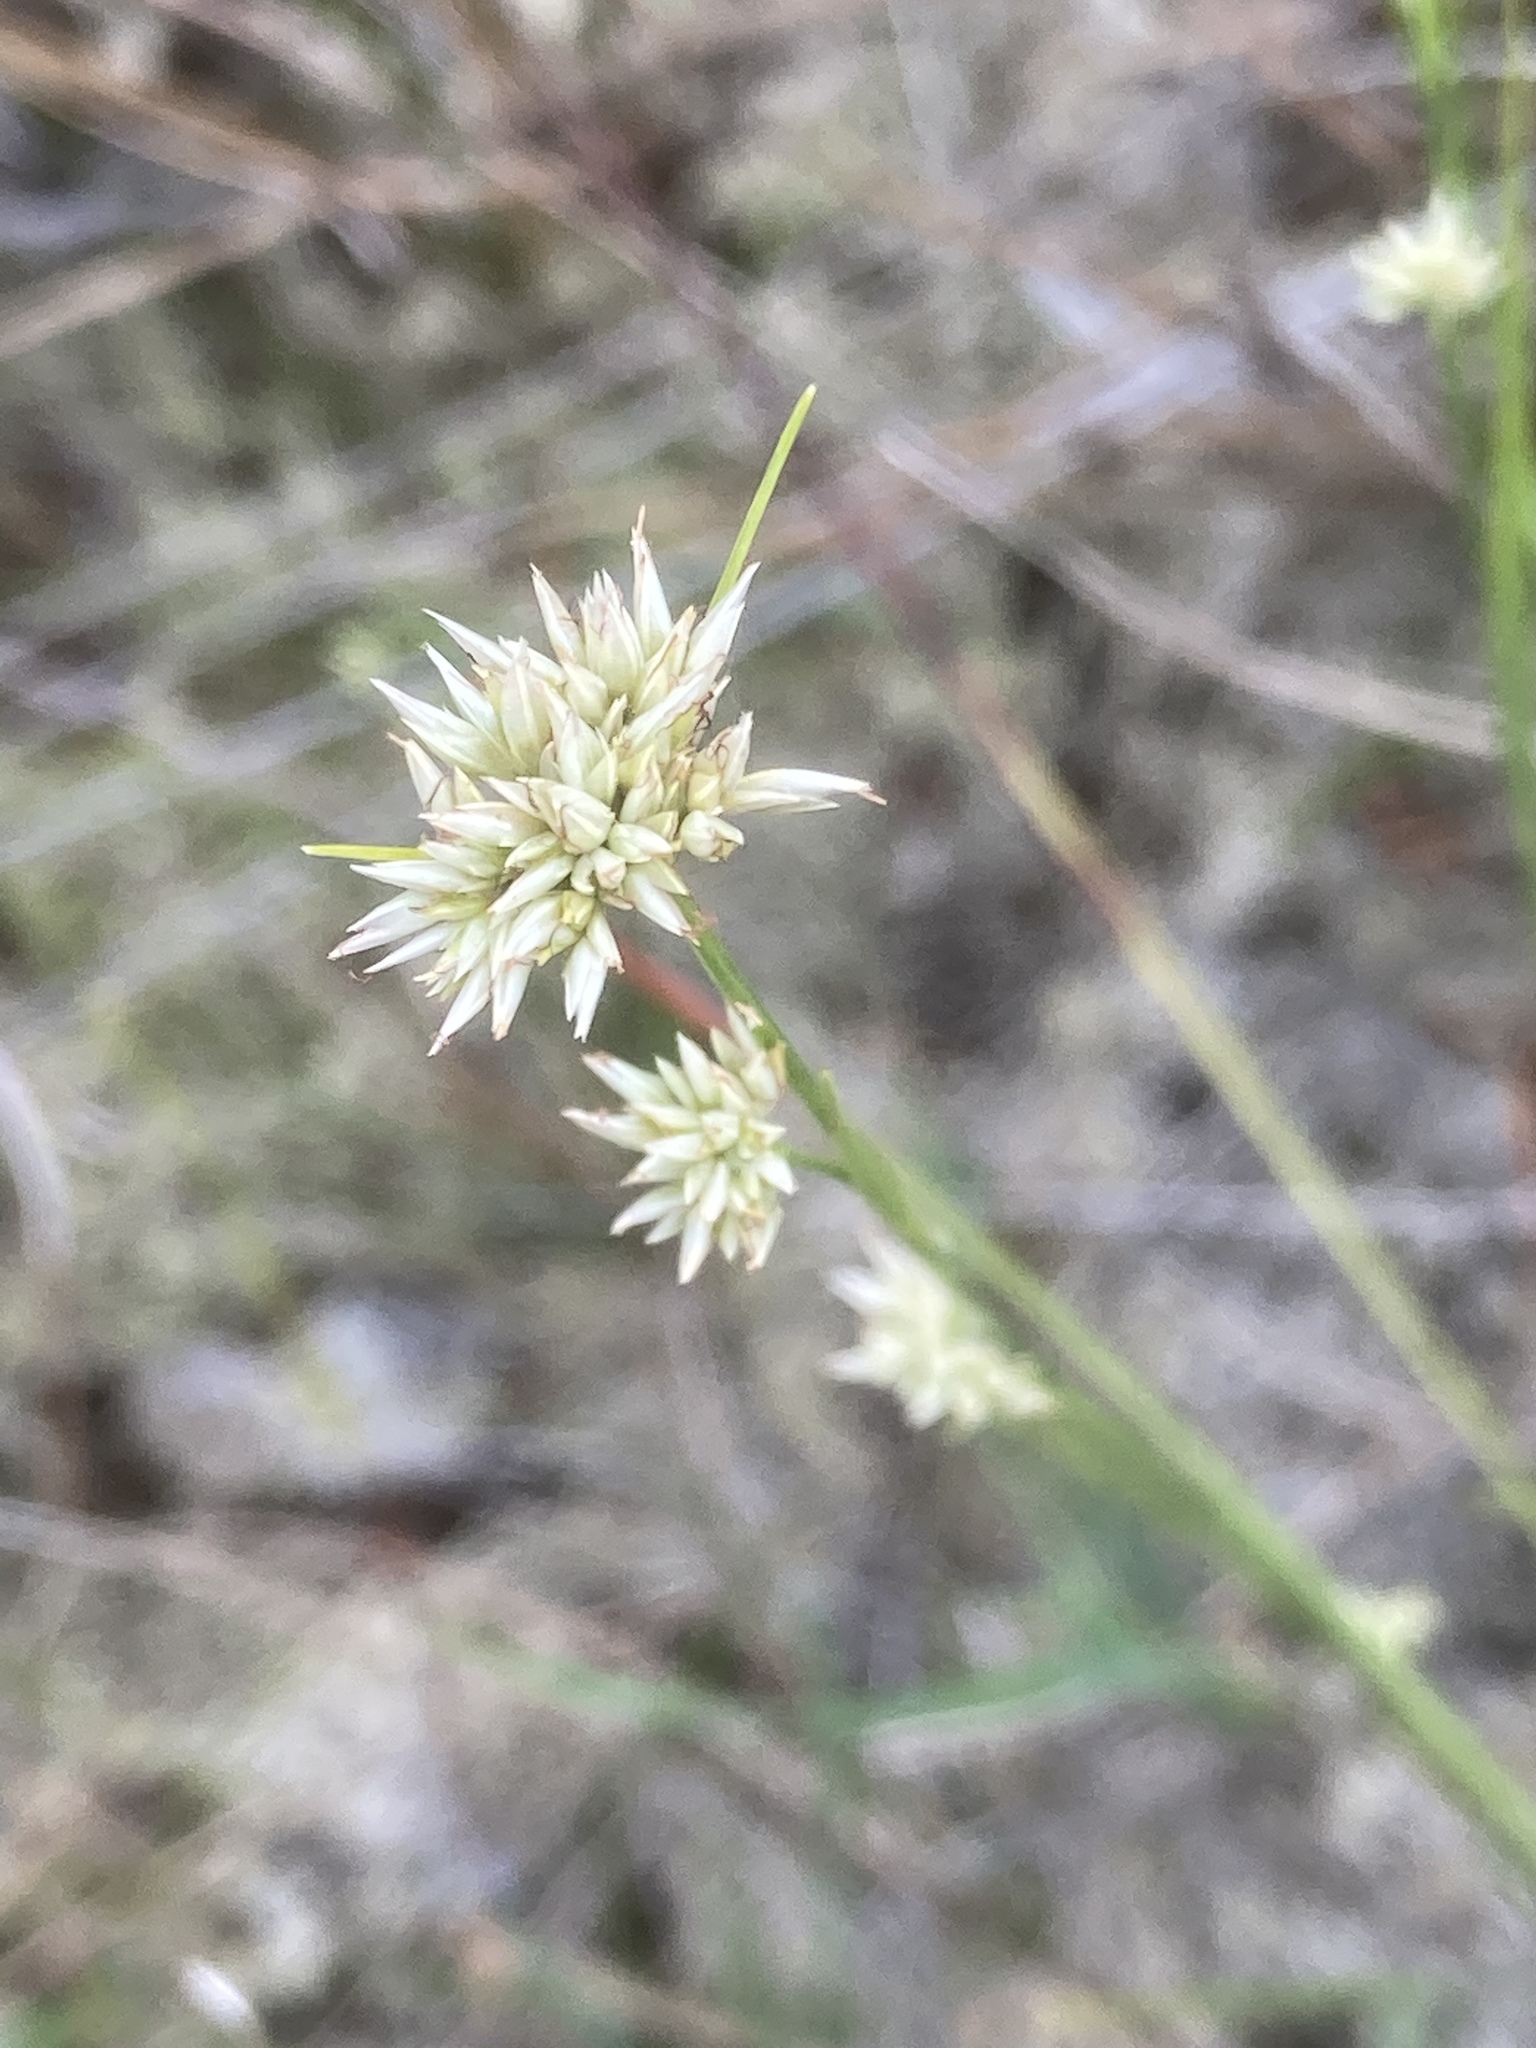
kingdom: Plantae
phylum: Tracheophyta
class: Liliopsida
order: Poales
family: Cyperaceae
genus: Rhynchospora
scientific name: Rhynchospora alba
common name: White beak-sedge
